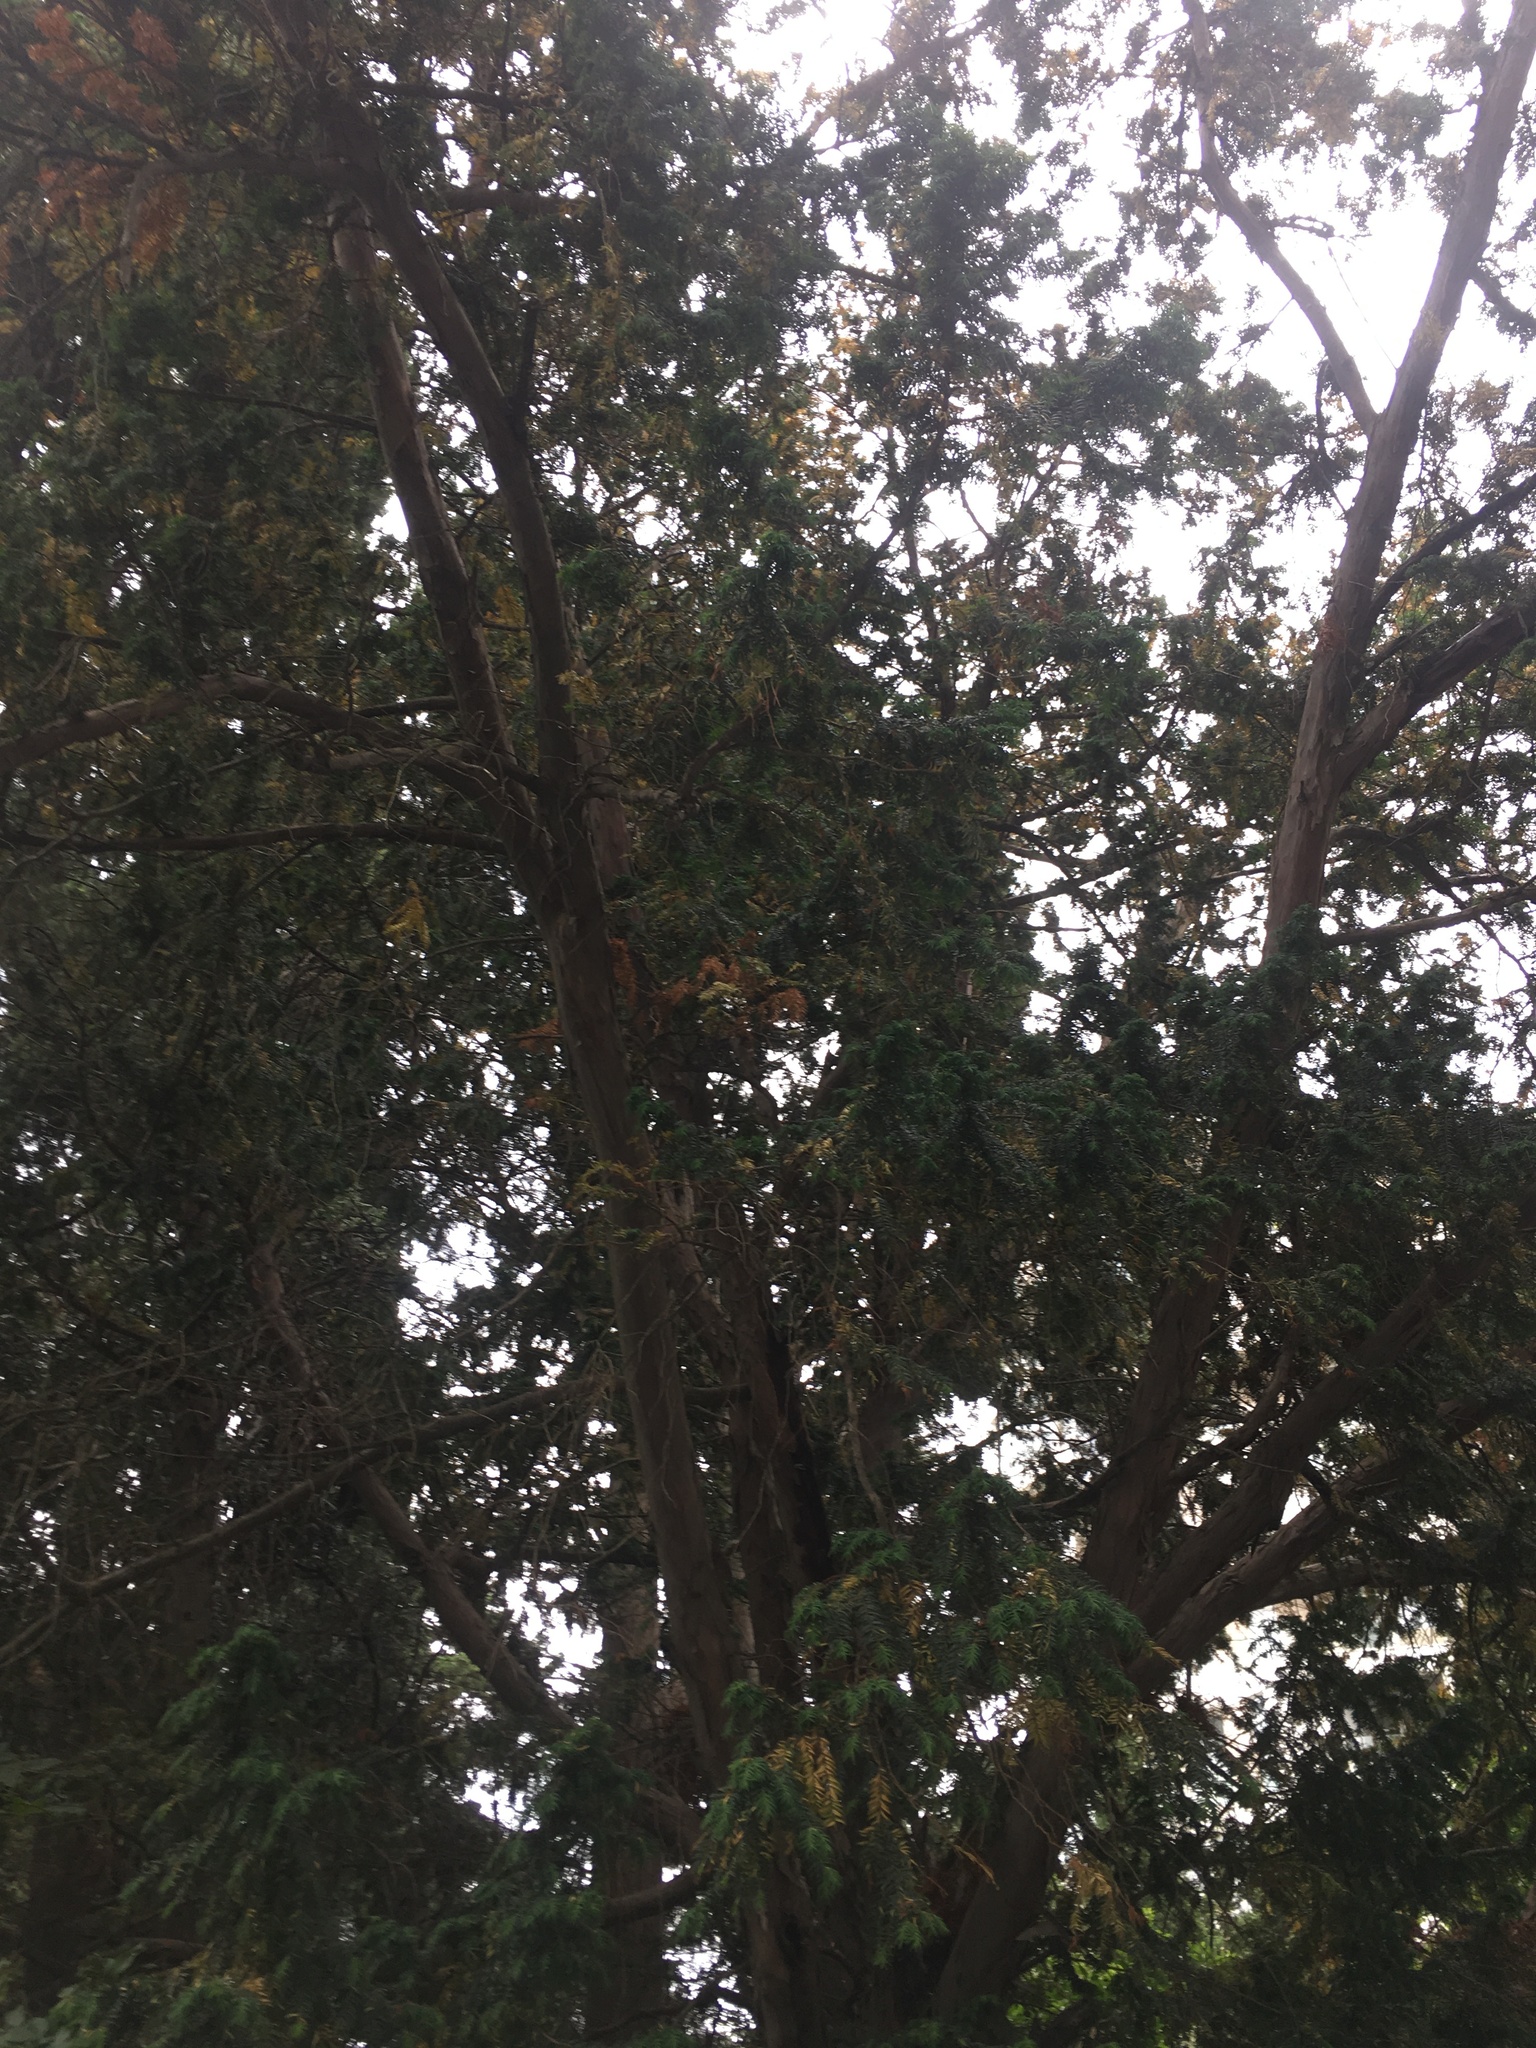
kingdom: Plantae
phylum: Tracheophyta
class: Pinopsida
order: Pinales
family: Taxaceae
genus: Taxus
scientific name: Taxus baccata
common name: Yew
